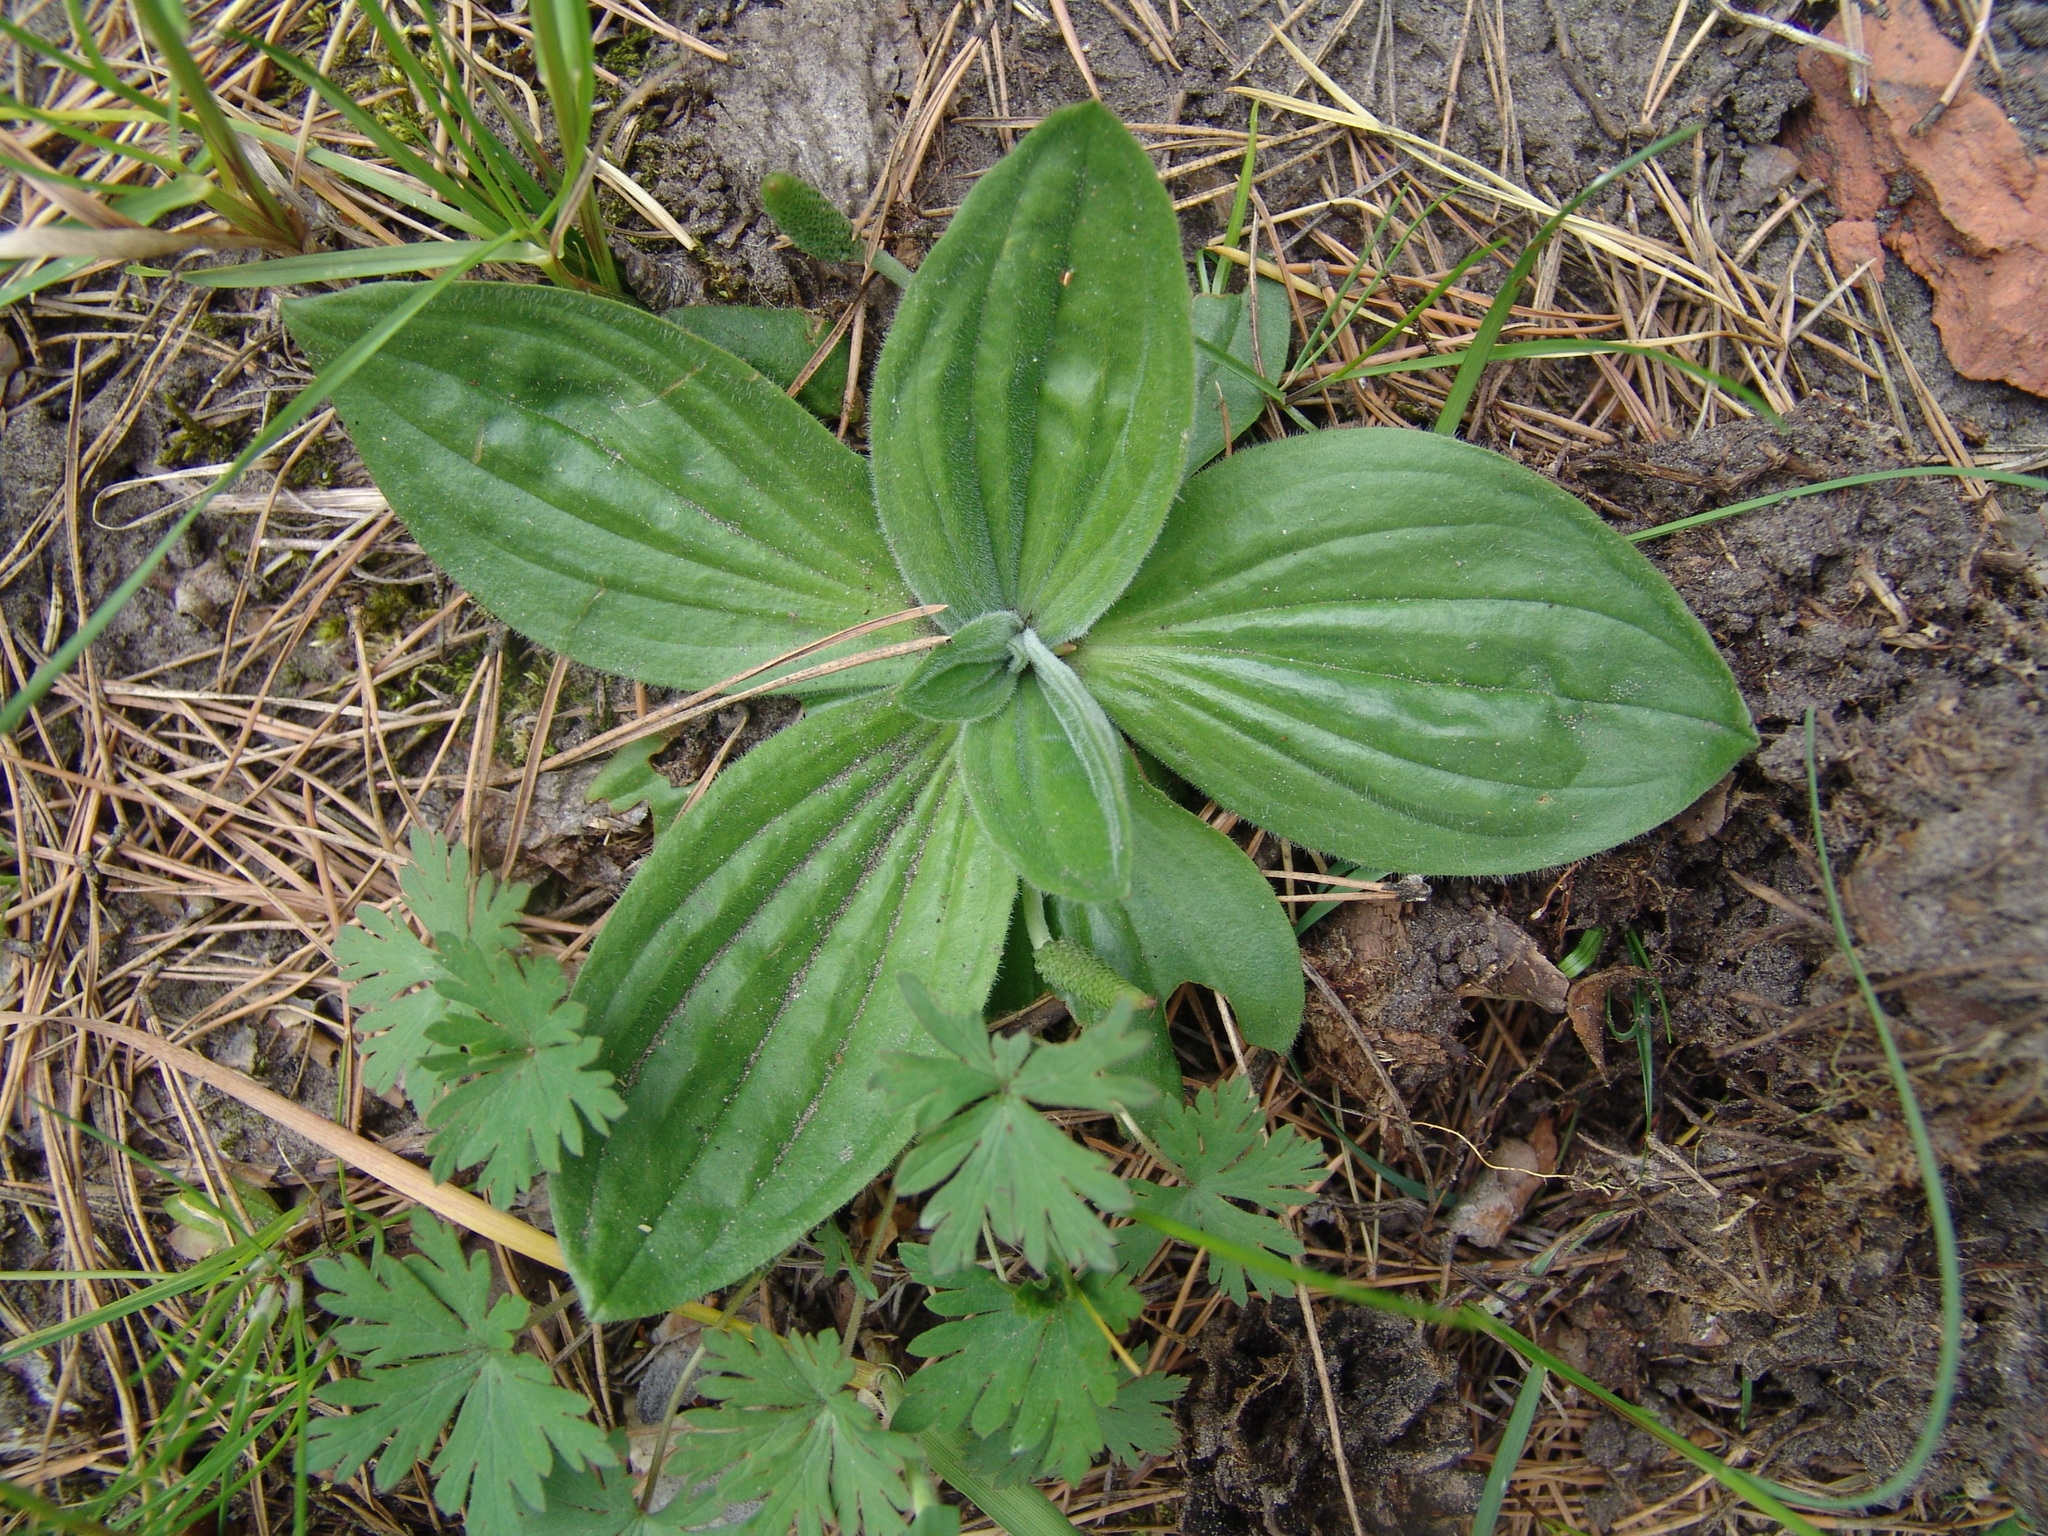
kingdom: Plantae
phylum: Tracheophyta
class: Magnoliopsida
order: Lamiales
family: Plantaginaceae
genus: Plantago
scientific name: Plantago media
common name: Hoary plantain
